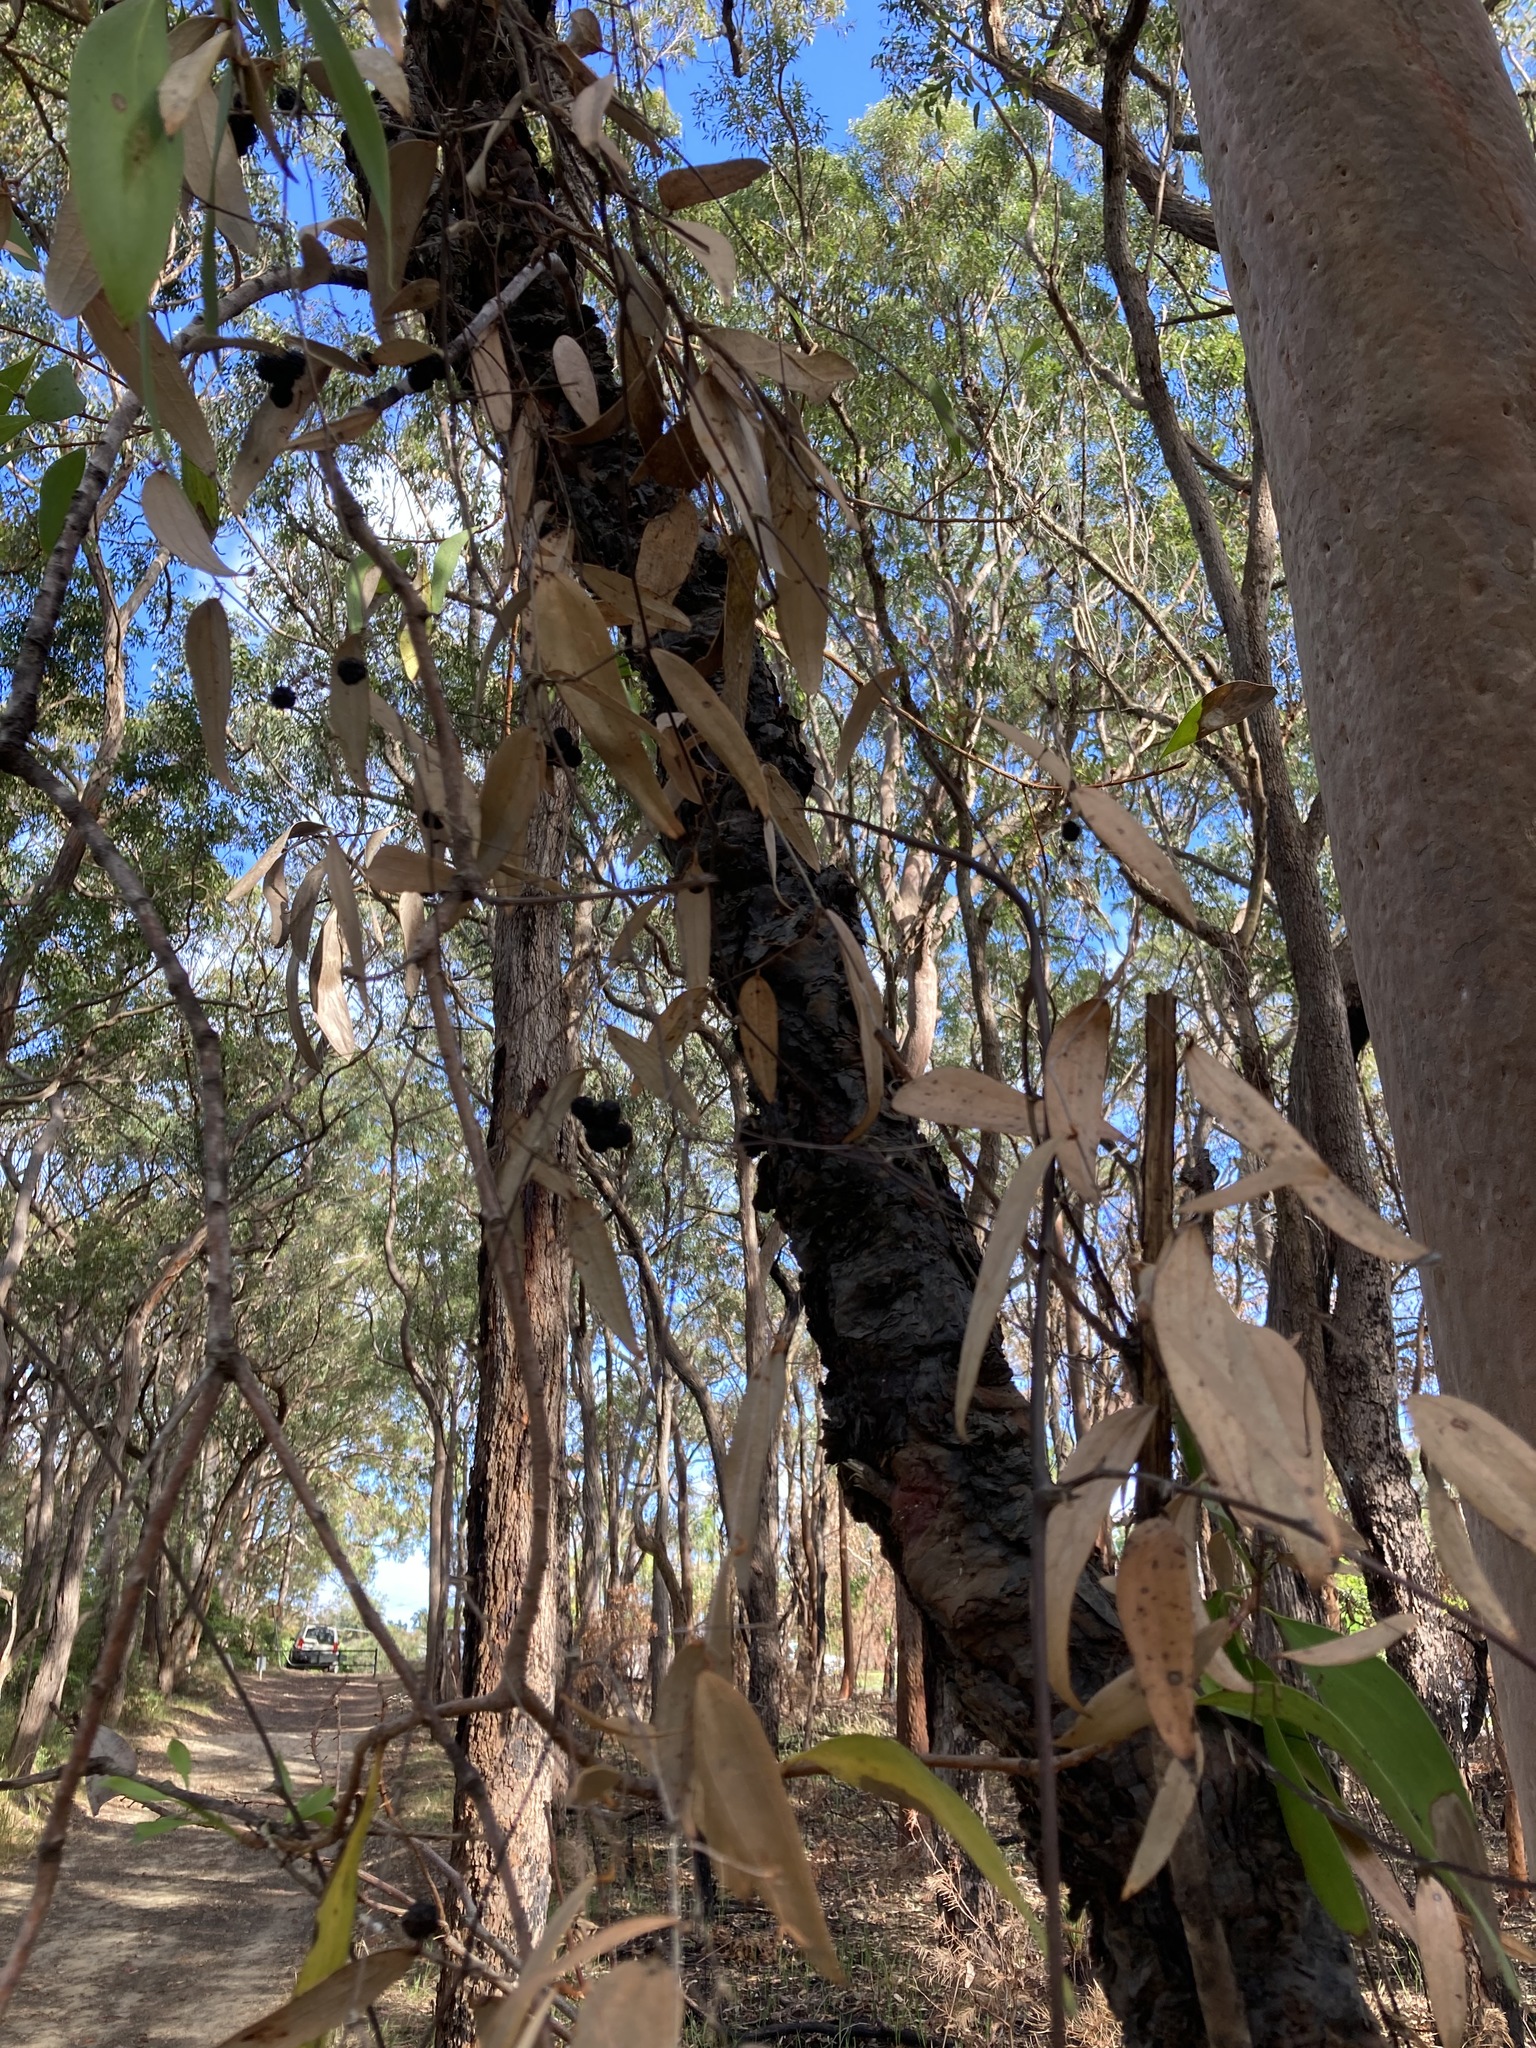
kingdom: Plantae
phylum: Tracheophyta
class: Liliopsida
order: Liliales
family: Smilacaceae
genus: Smilax
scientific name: Smilax glyciphylla
